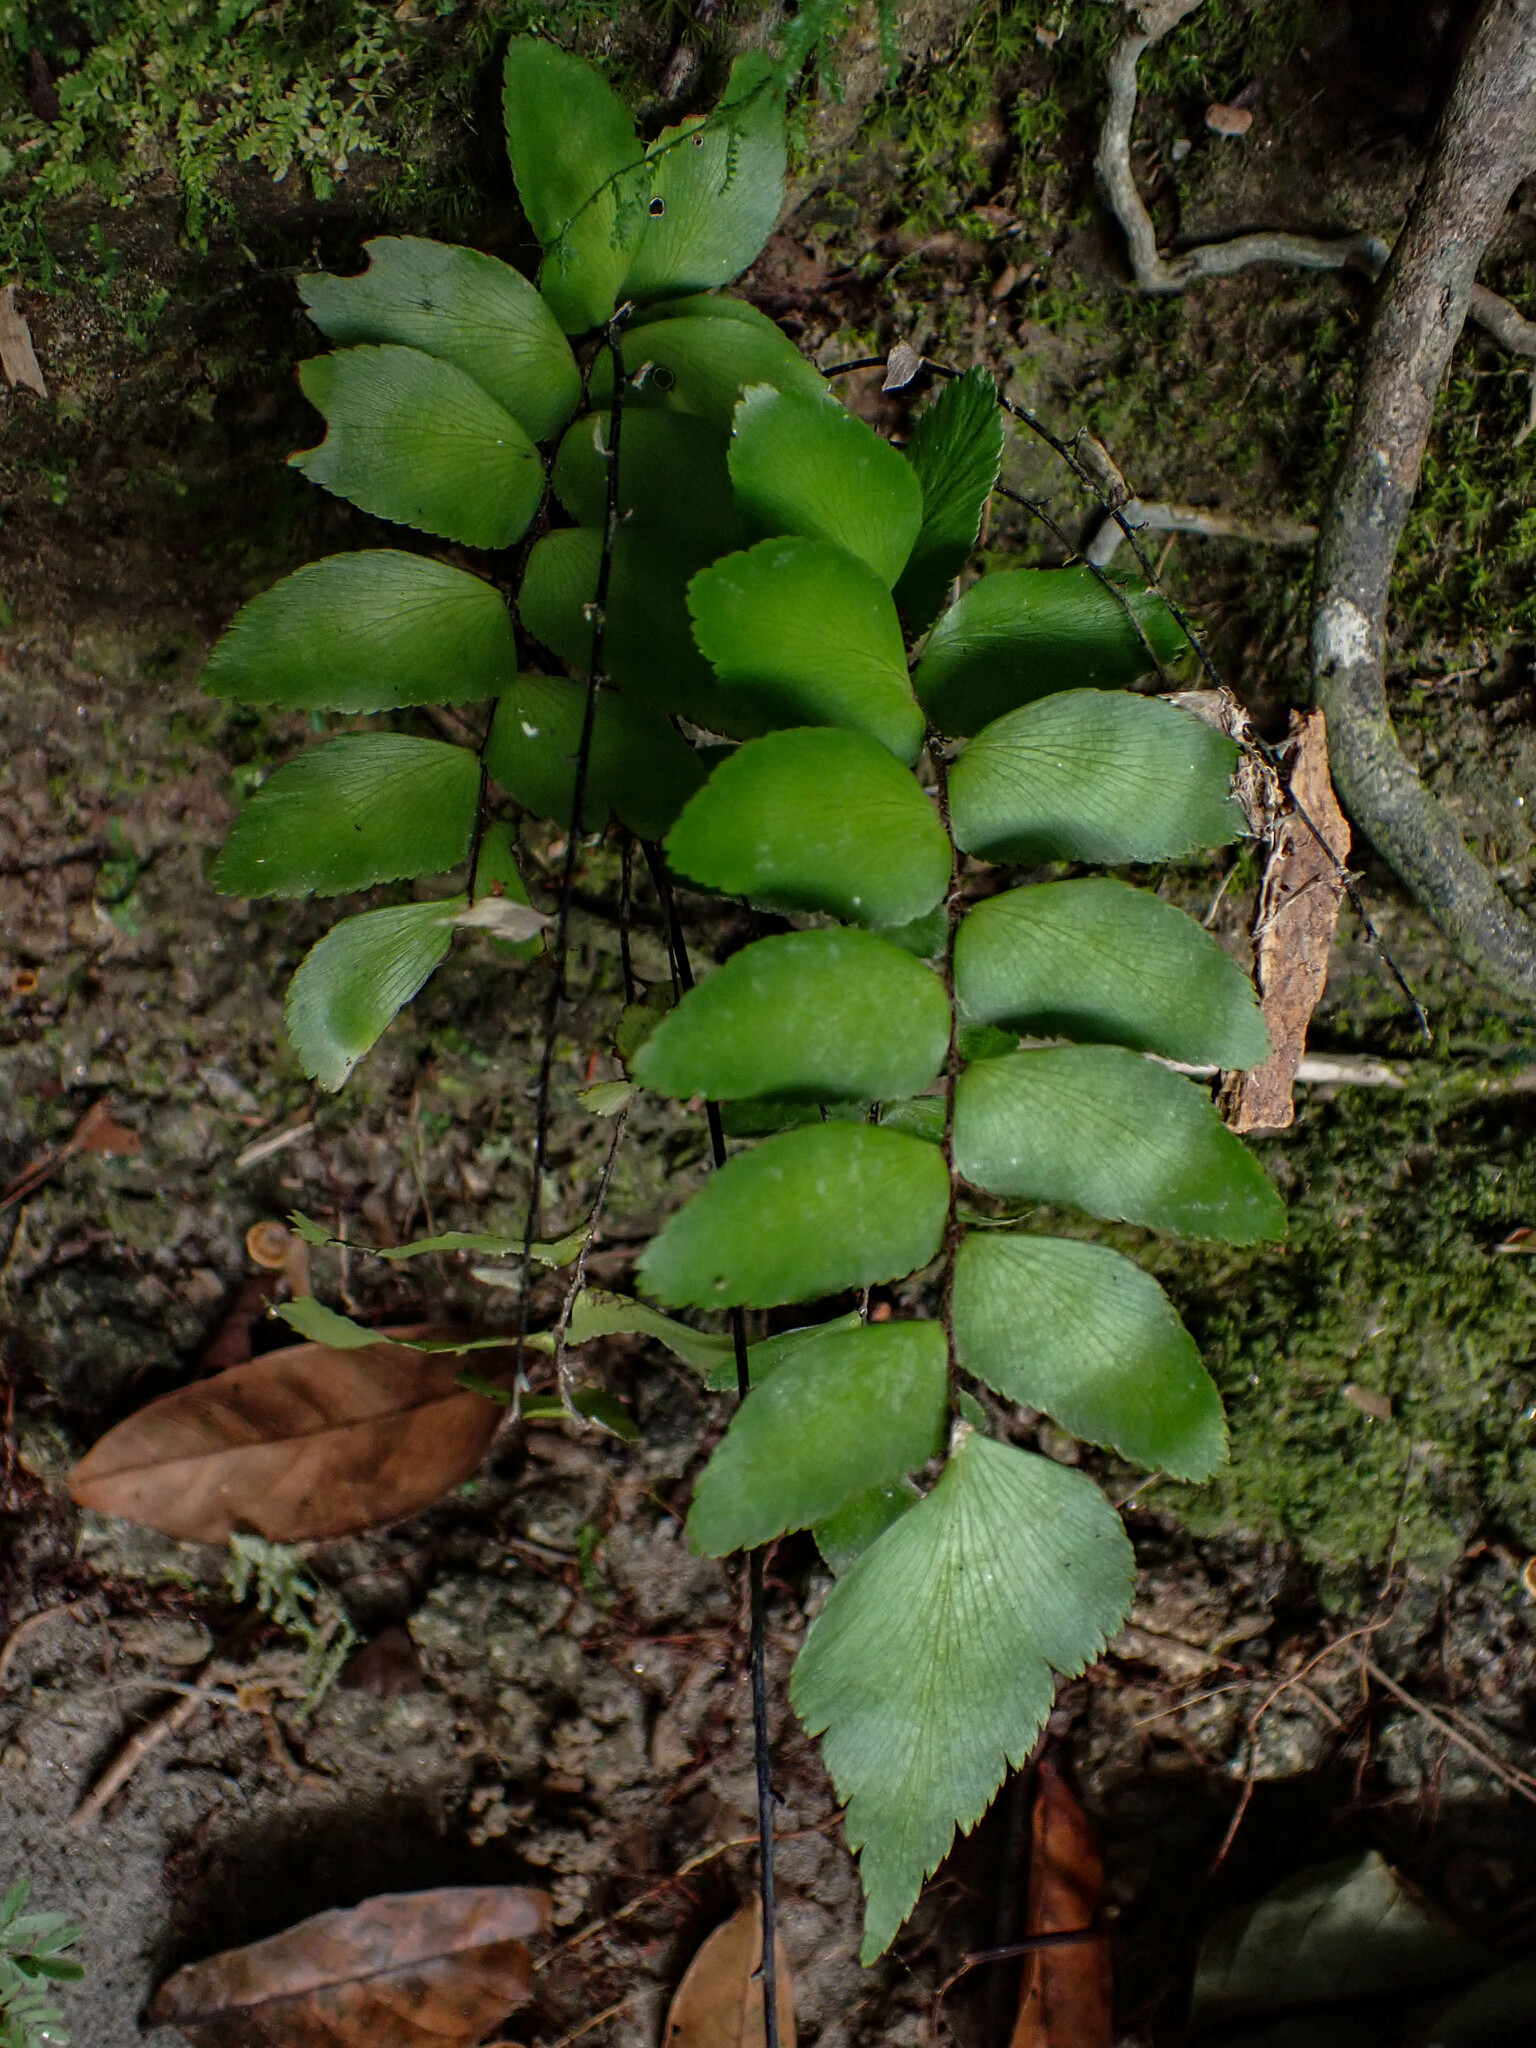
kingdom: Plantae
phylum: Tracheophyta
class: Polypodiopsida
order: Polypodiales
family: Pteridaceae
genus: Adiantum
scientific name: Adiantum obliquum
